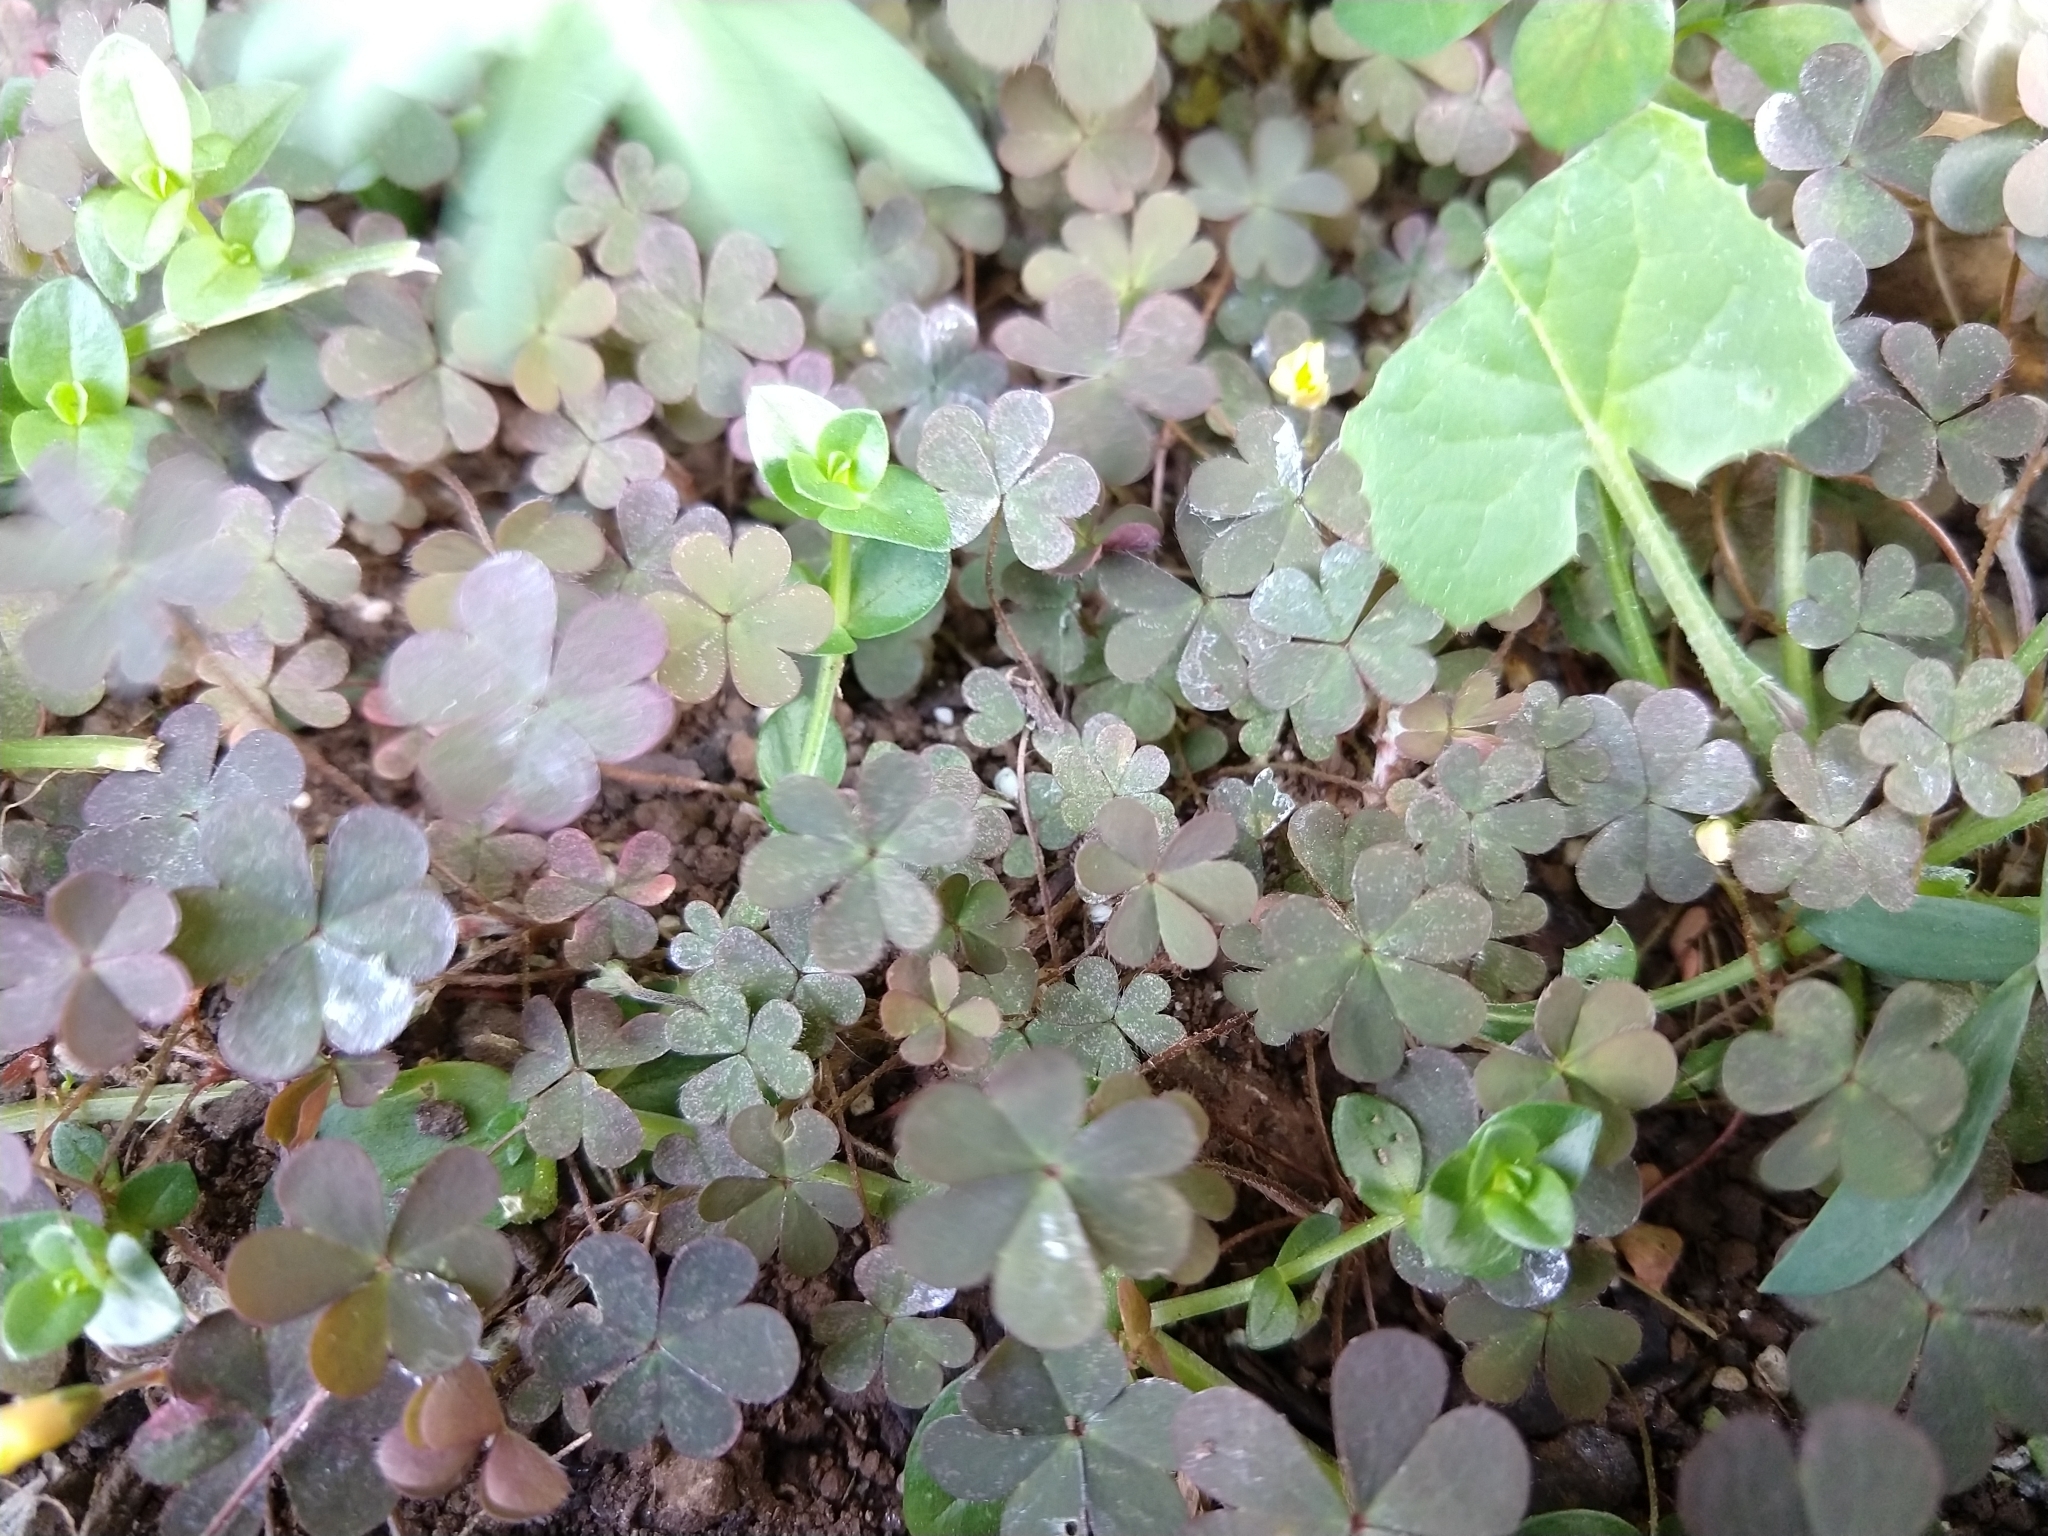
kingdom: Plantae
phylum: Tracheophyta
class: Magnoliopsida
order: Oxalidales
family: Oxalidaceae
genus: Oxalis
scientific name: Oxalis corniculata
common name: Procumbent yellow-sorrel
